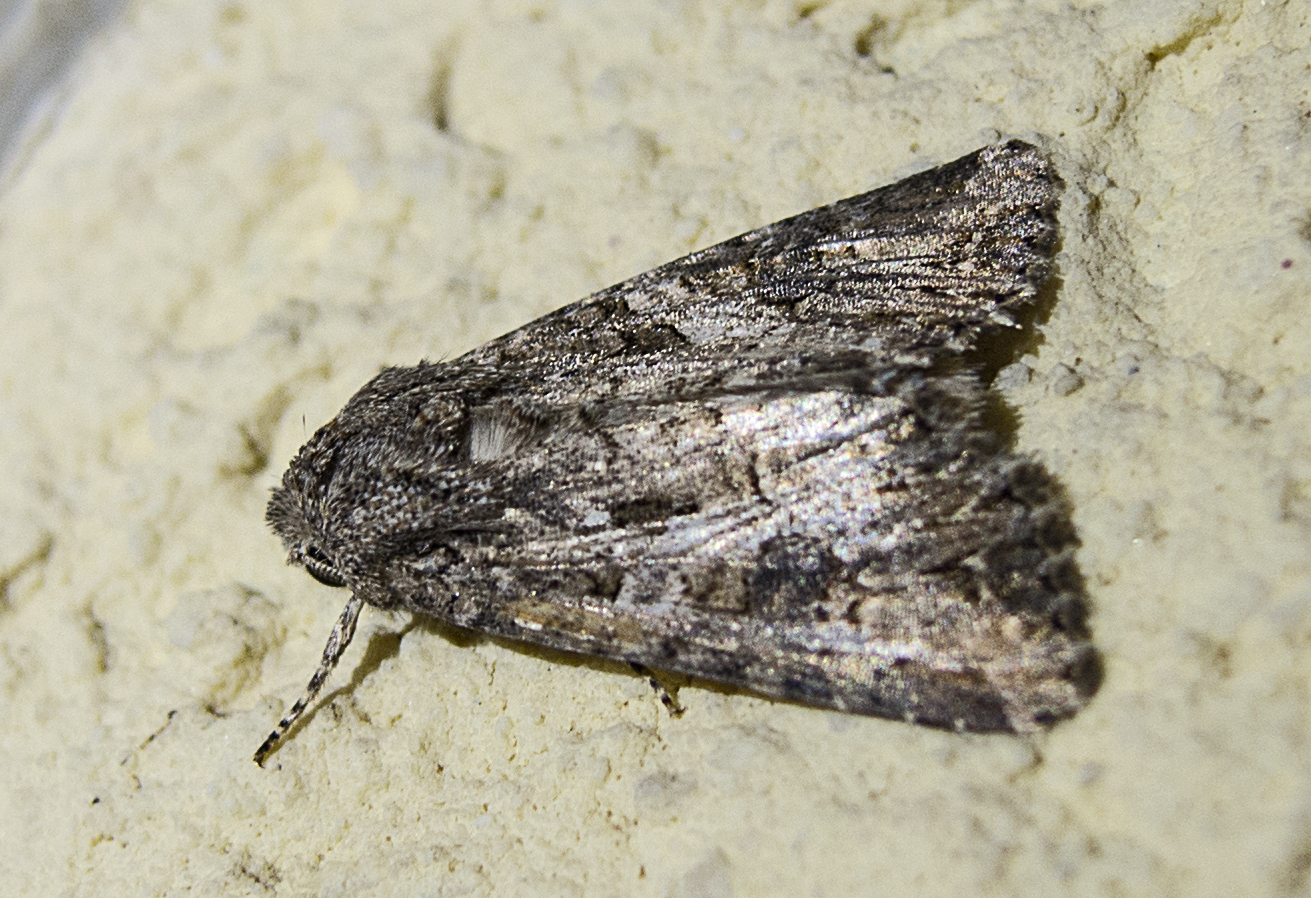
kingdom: Animalia
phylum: Arthropoda
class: Insecta
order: Lepidoptera
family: Noctuidae
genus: Anarta
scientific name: Anarta trifolii
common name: Clover cutworm moth
